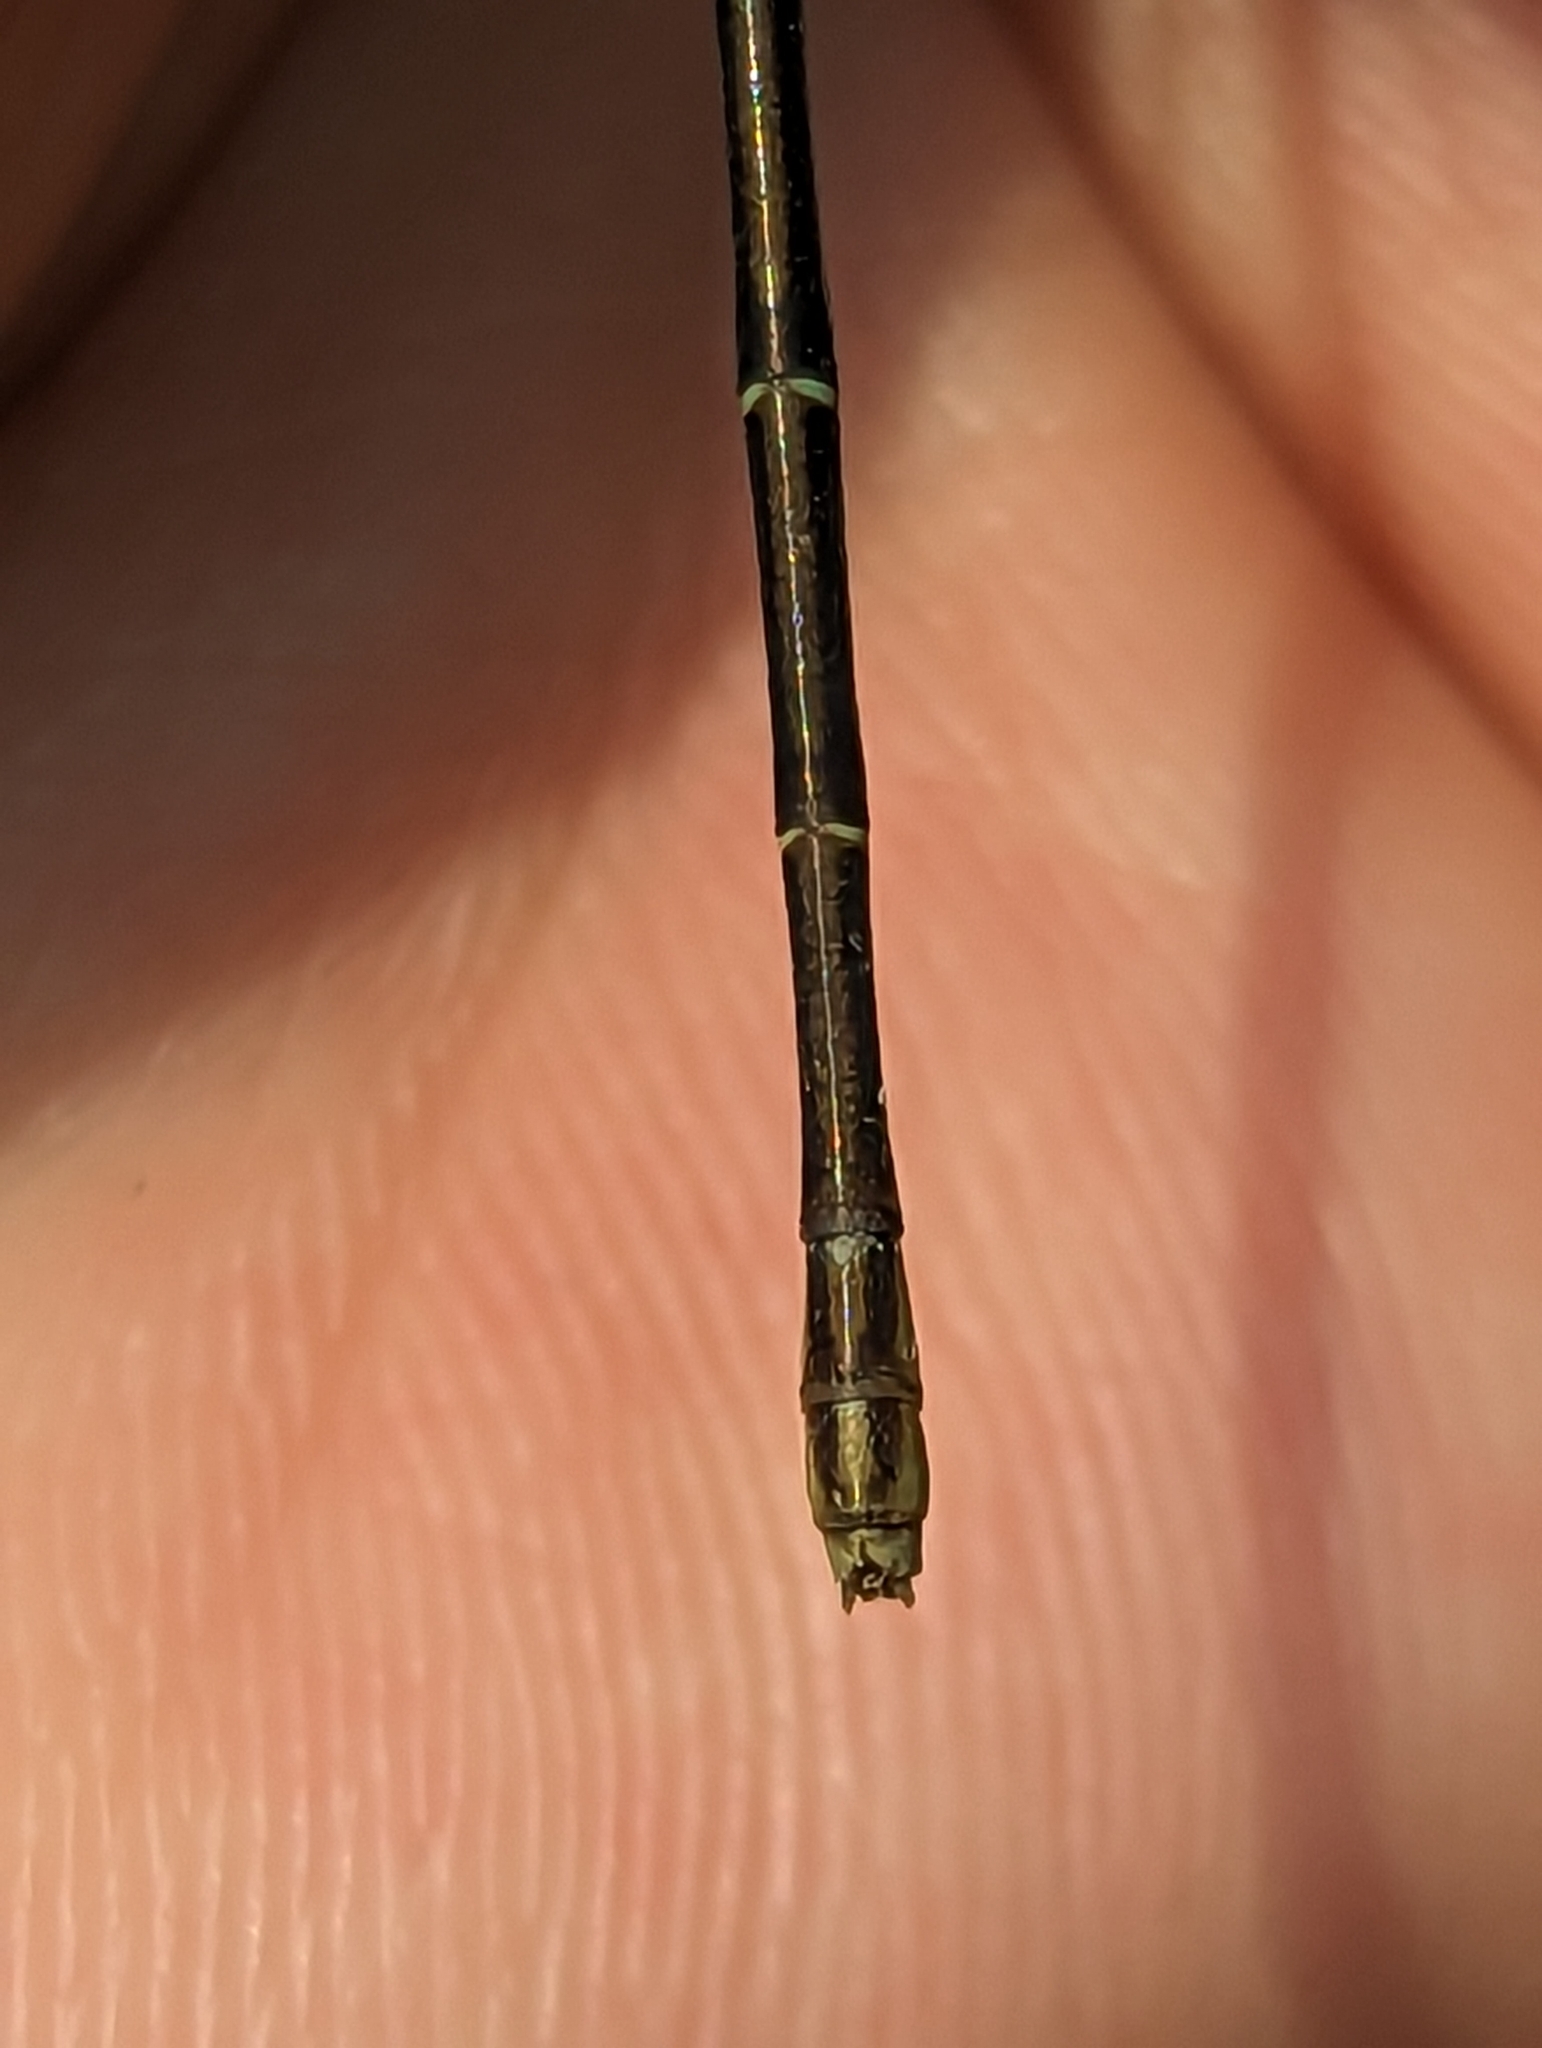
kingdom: Animalia
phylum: Arthropoda
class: Insecta
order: Odonata
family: Coenagrionidae
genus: Argia
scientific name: Argia moesta
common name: Powdered dancer
